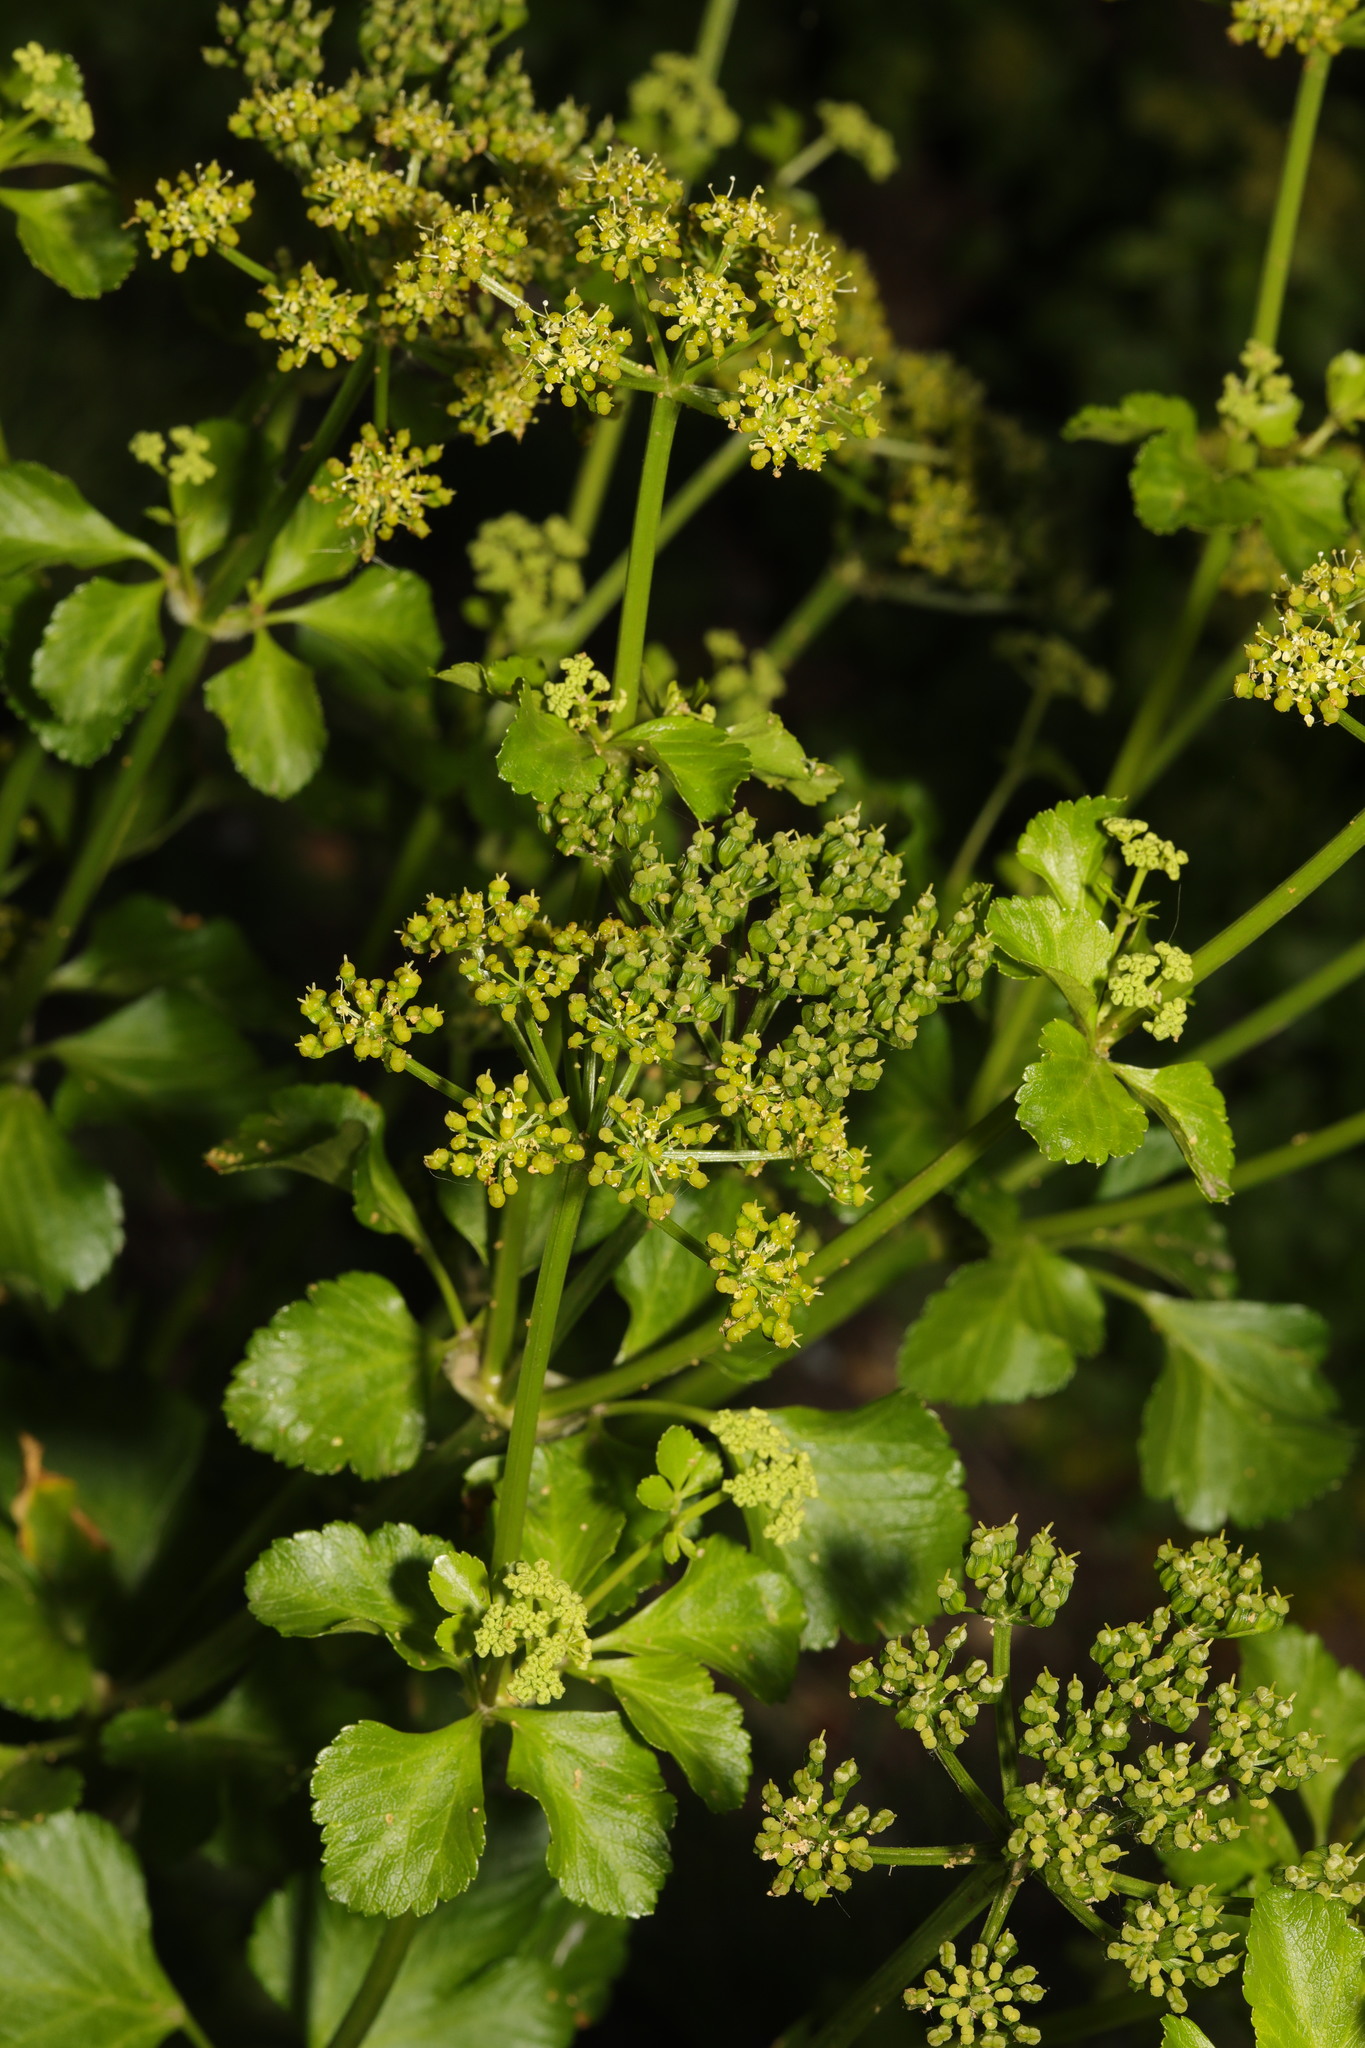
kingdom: Plantae
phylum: Tracheophyta
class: Magnoliopsida
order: Apiales
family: Apiaceae
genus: Smyrnium
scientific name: Smyrnium olusatrum
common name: Alexanders
